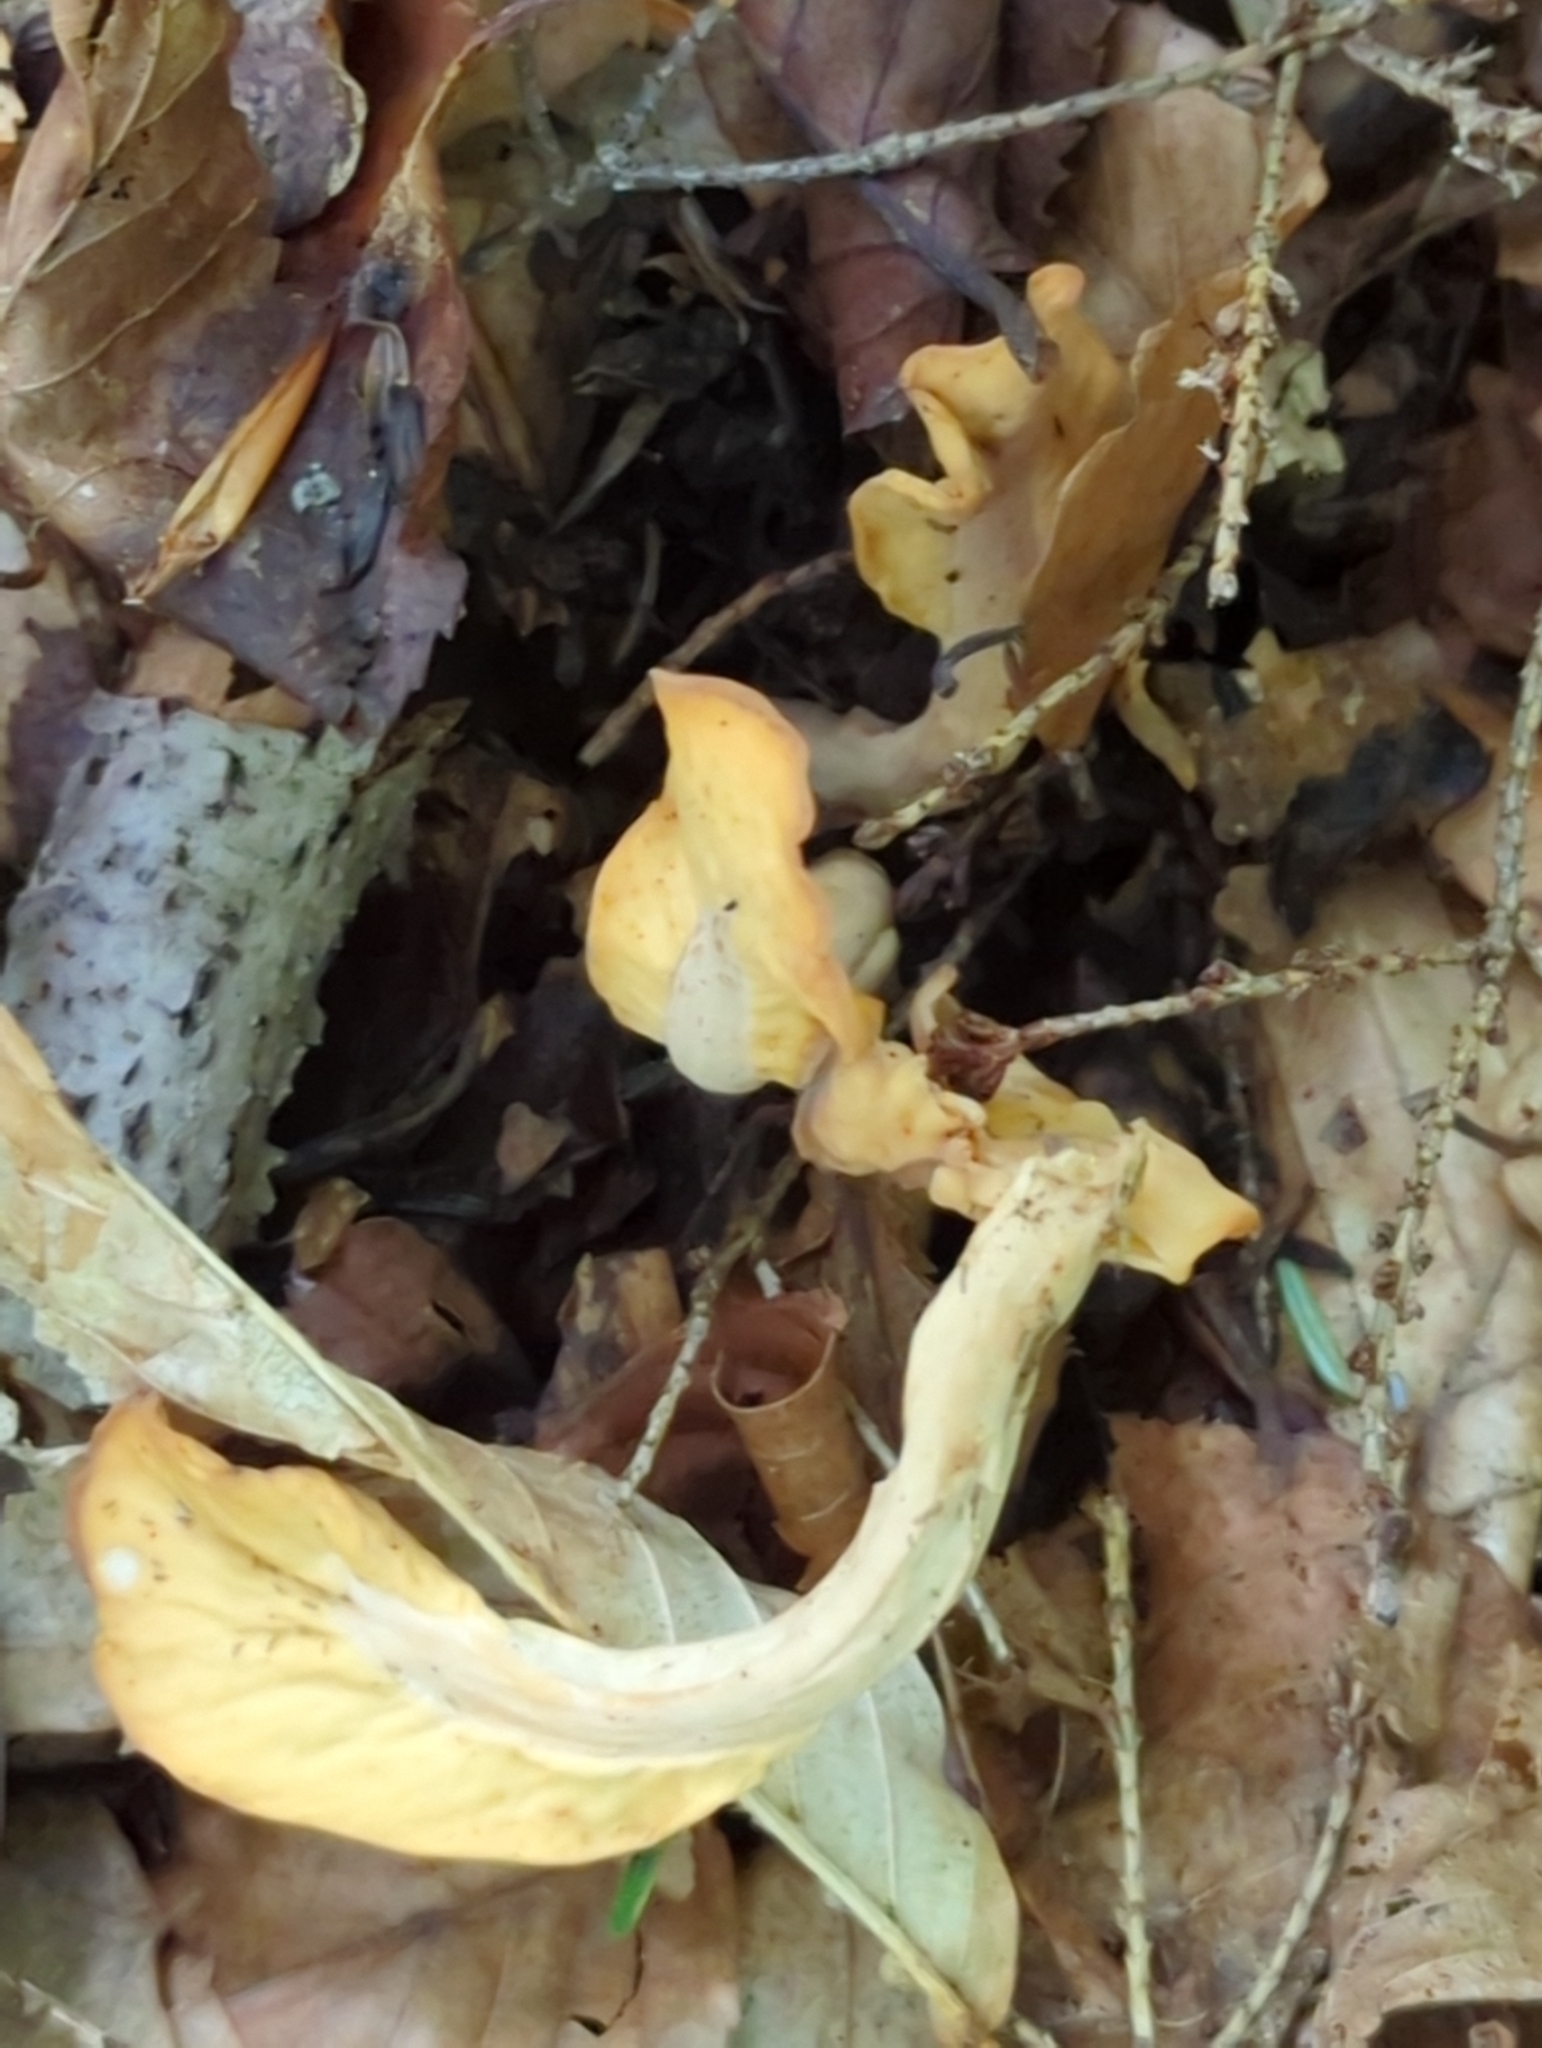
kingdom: Fungi
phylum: Ascomycota
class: Leotiomycetes
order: Rhytismatales
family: Cudoniaceae
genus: Spathularia
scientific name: Spathularia flavida
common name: Yellow fan
